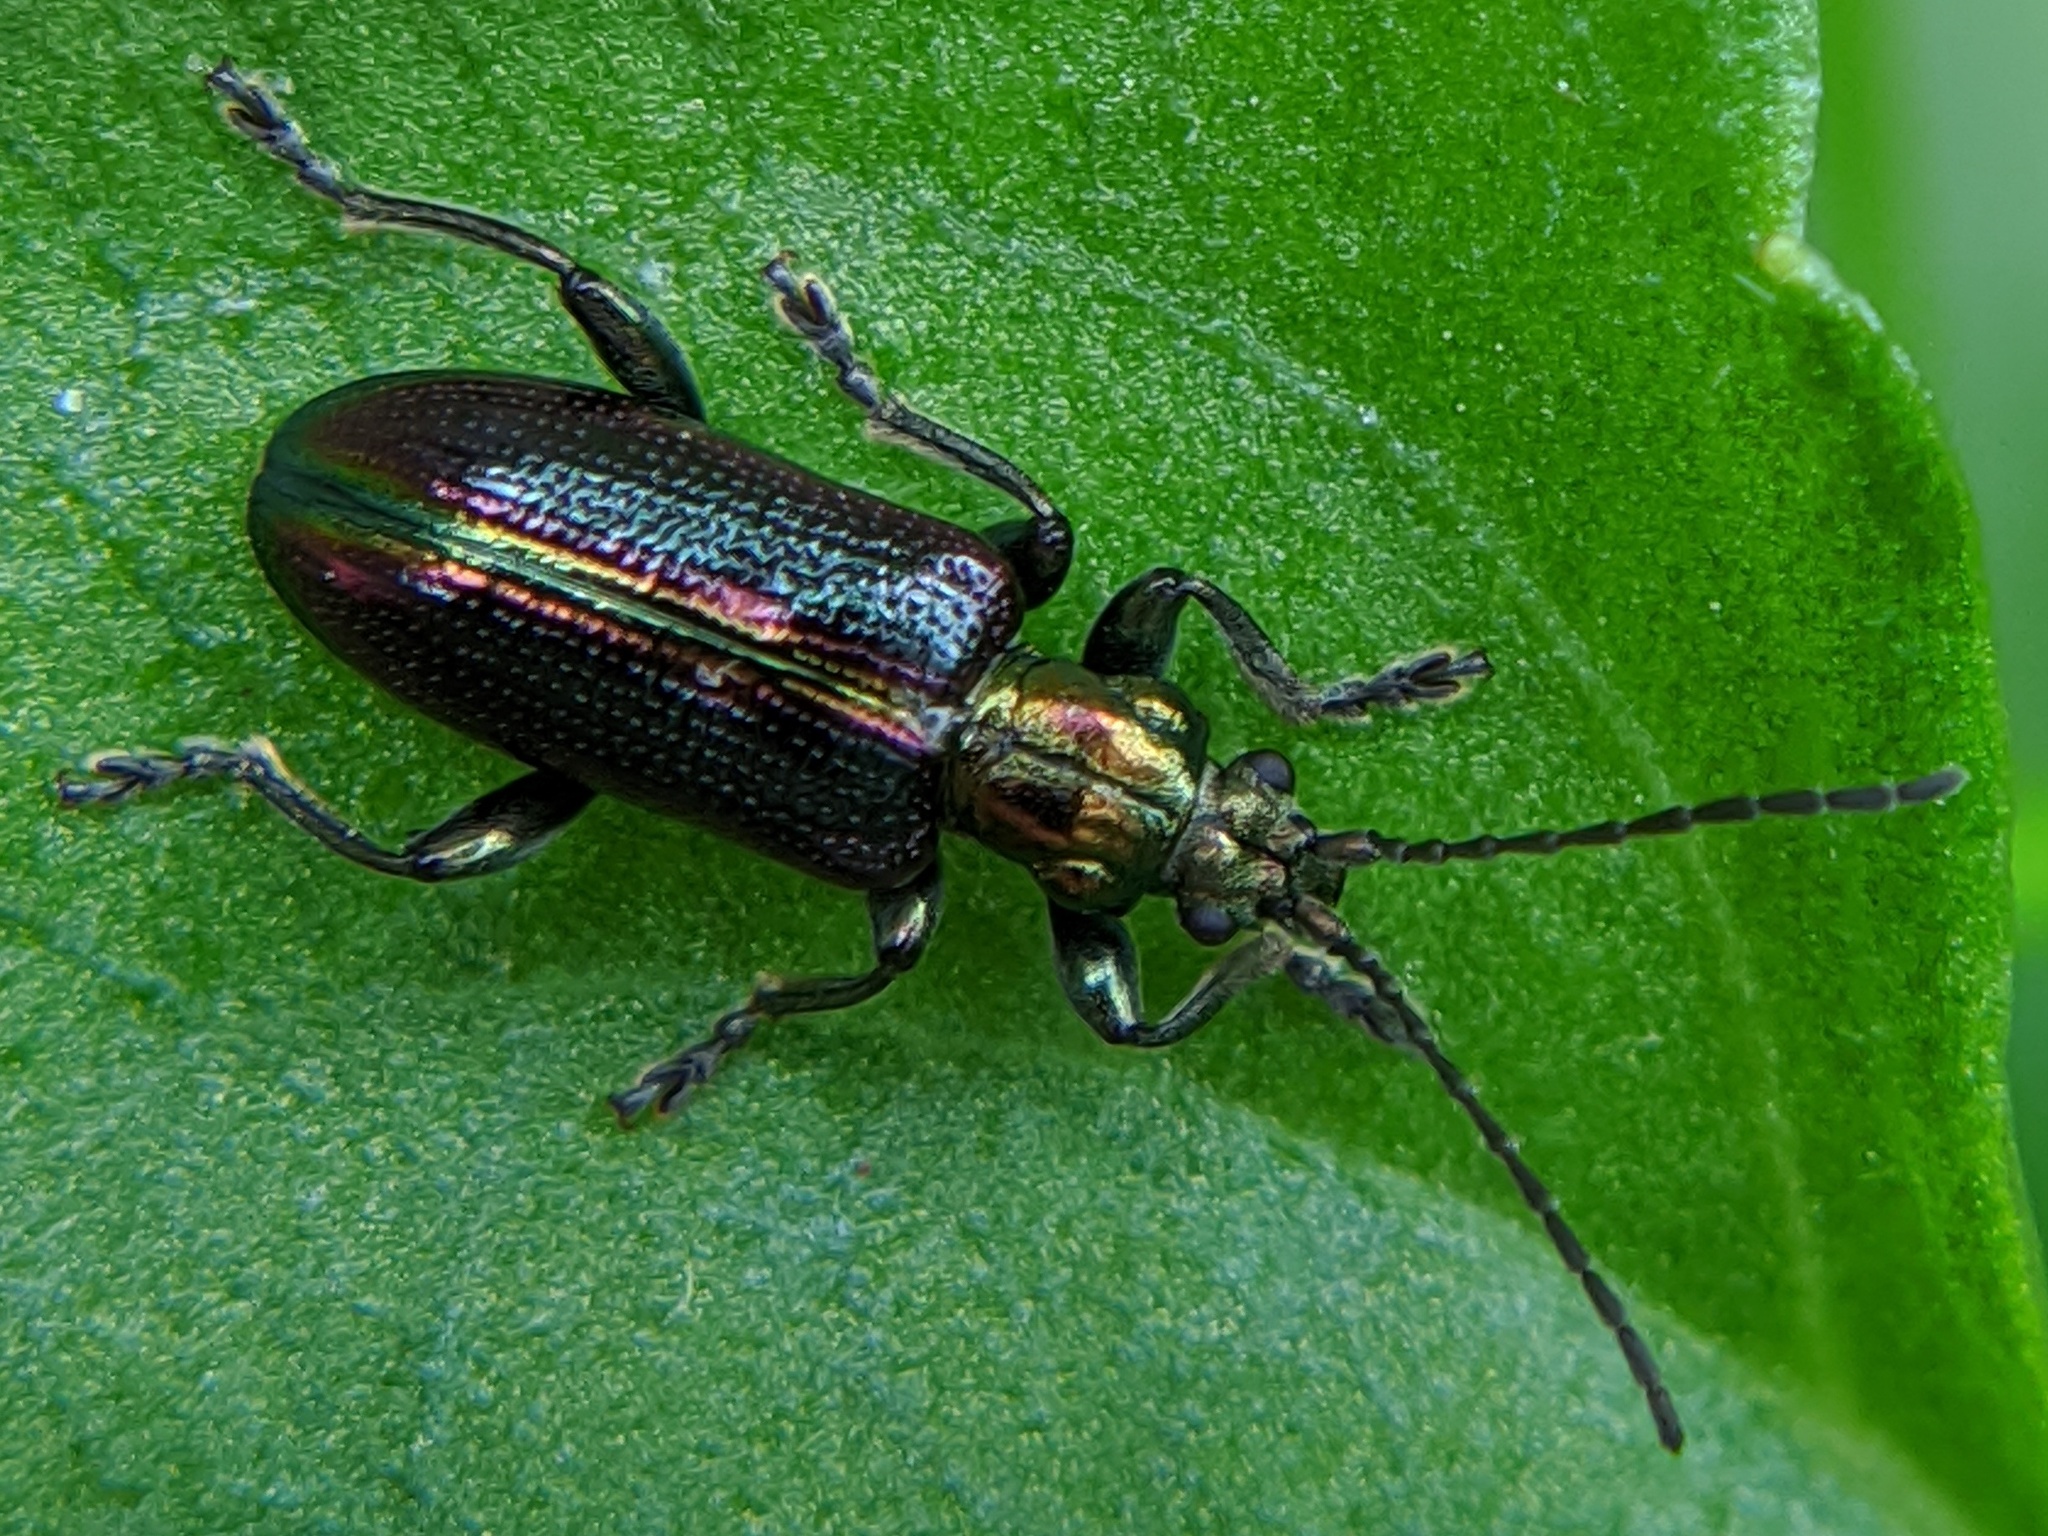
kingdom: Animalia
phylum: Arthropoda
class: Insecta
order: Coleoptera
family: Chrysomelidae
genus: Plateumaris
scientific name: Plateumaris schaefferi
